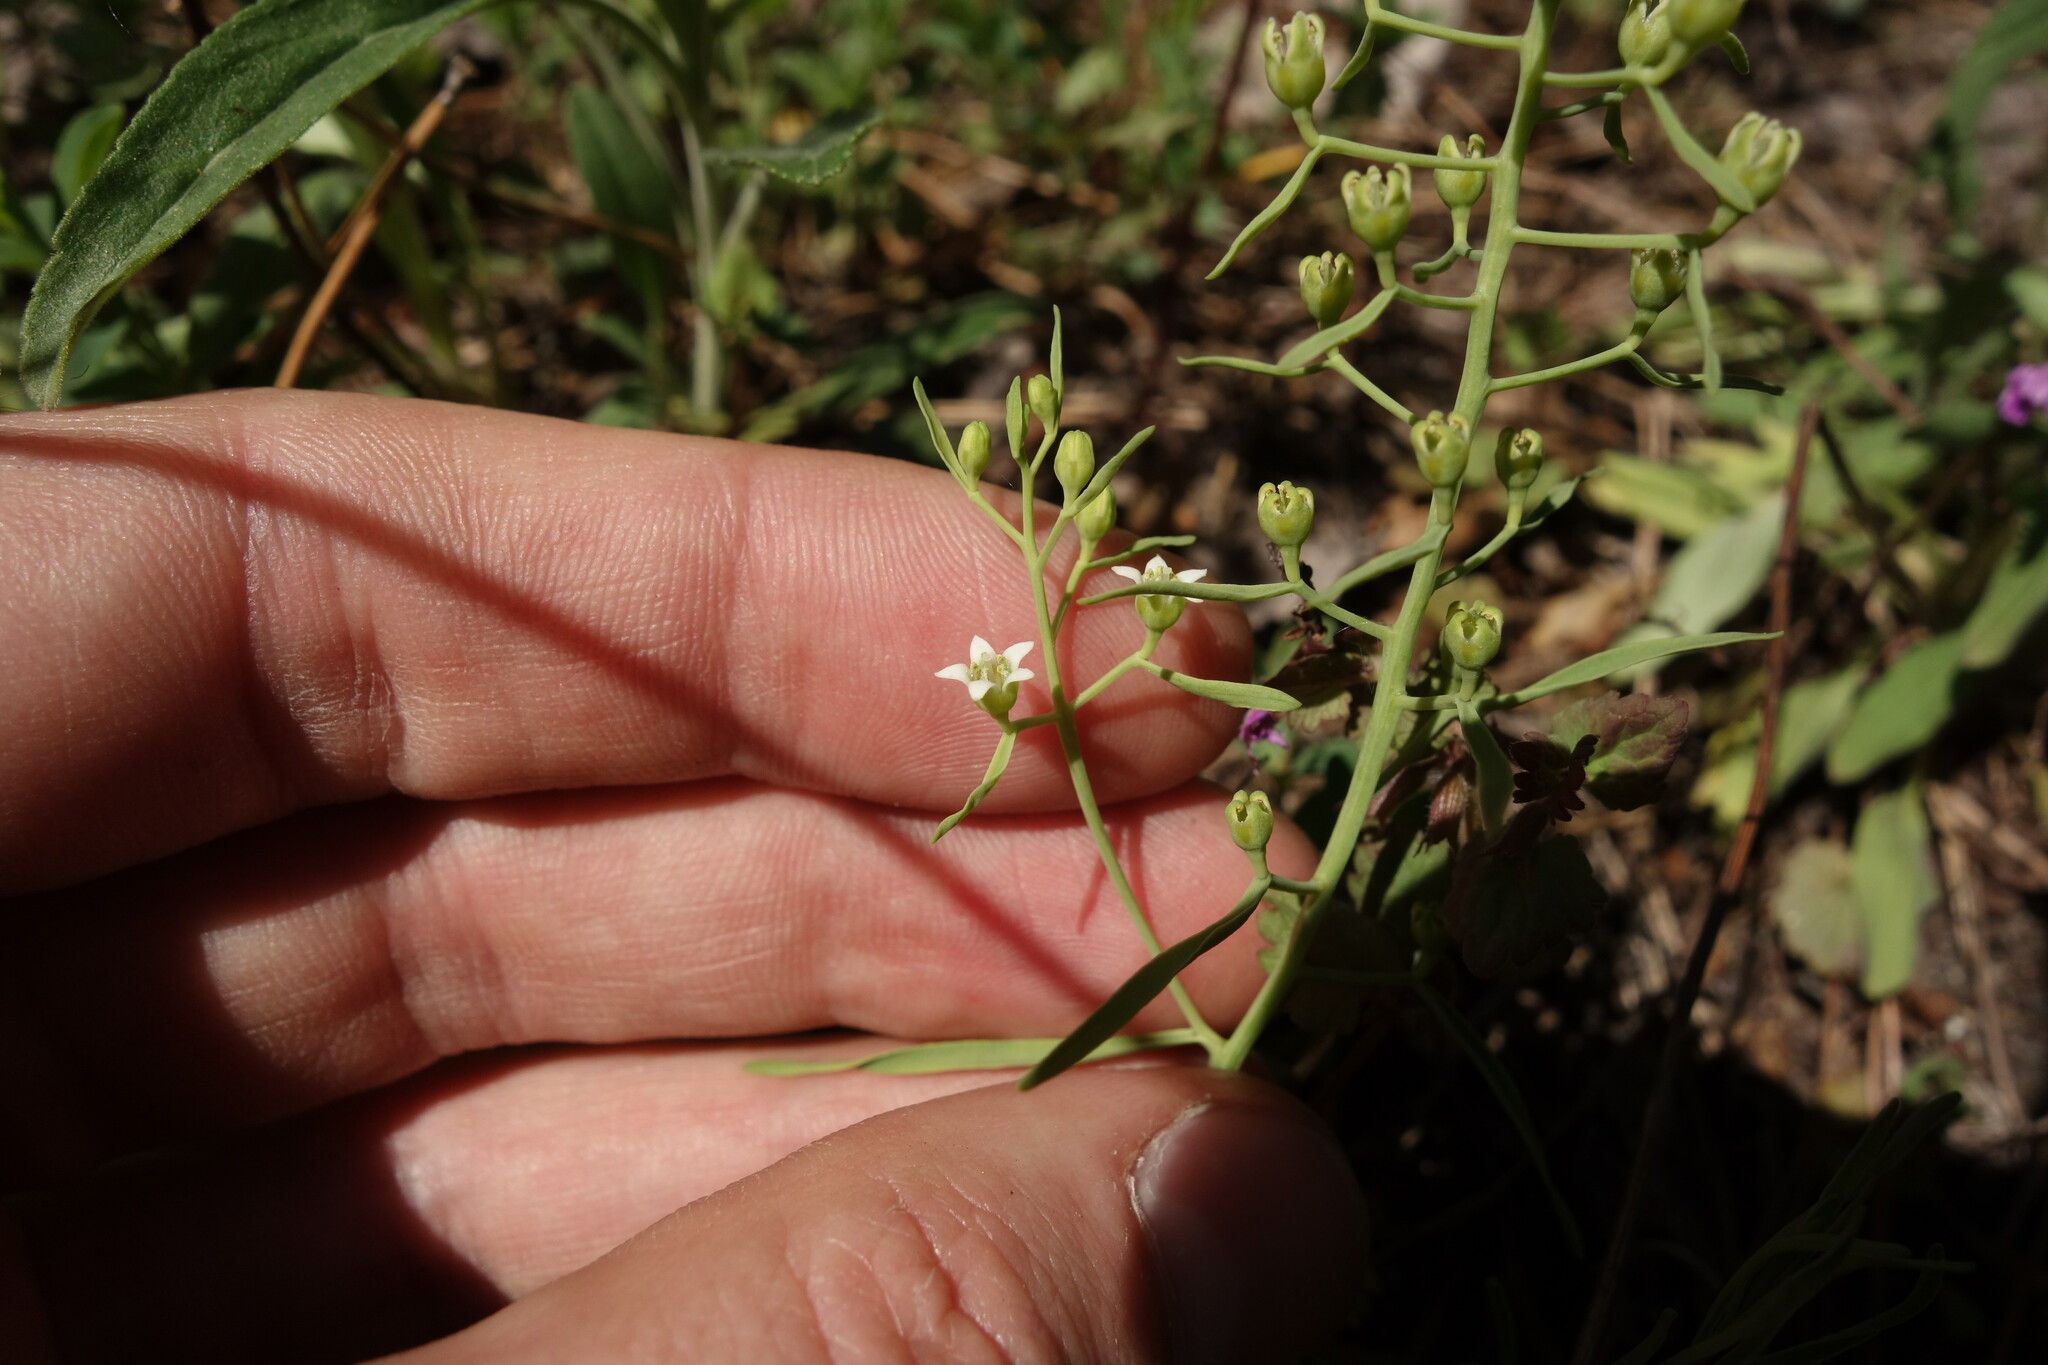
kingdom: Plantae
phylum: Tracheophyta
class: Magnoliopsida
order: Santalales
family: Thesiaceae
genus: Thesium
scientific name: Thesium ebracteatum
